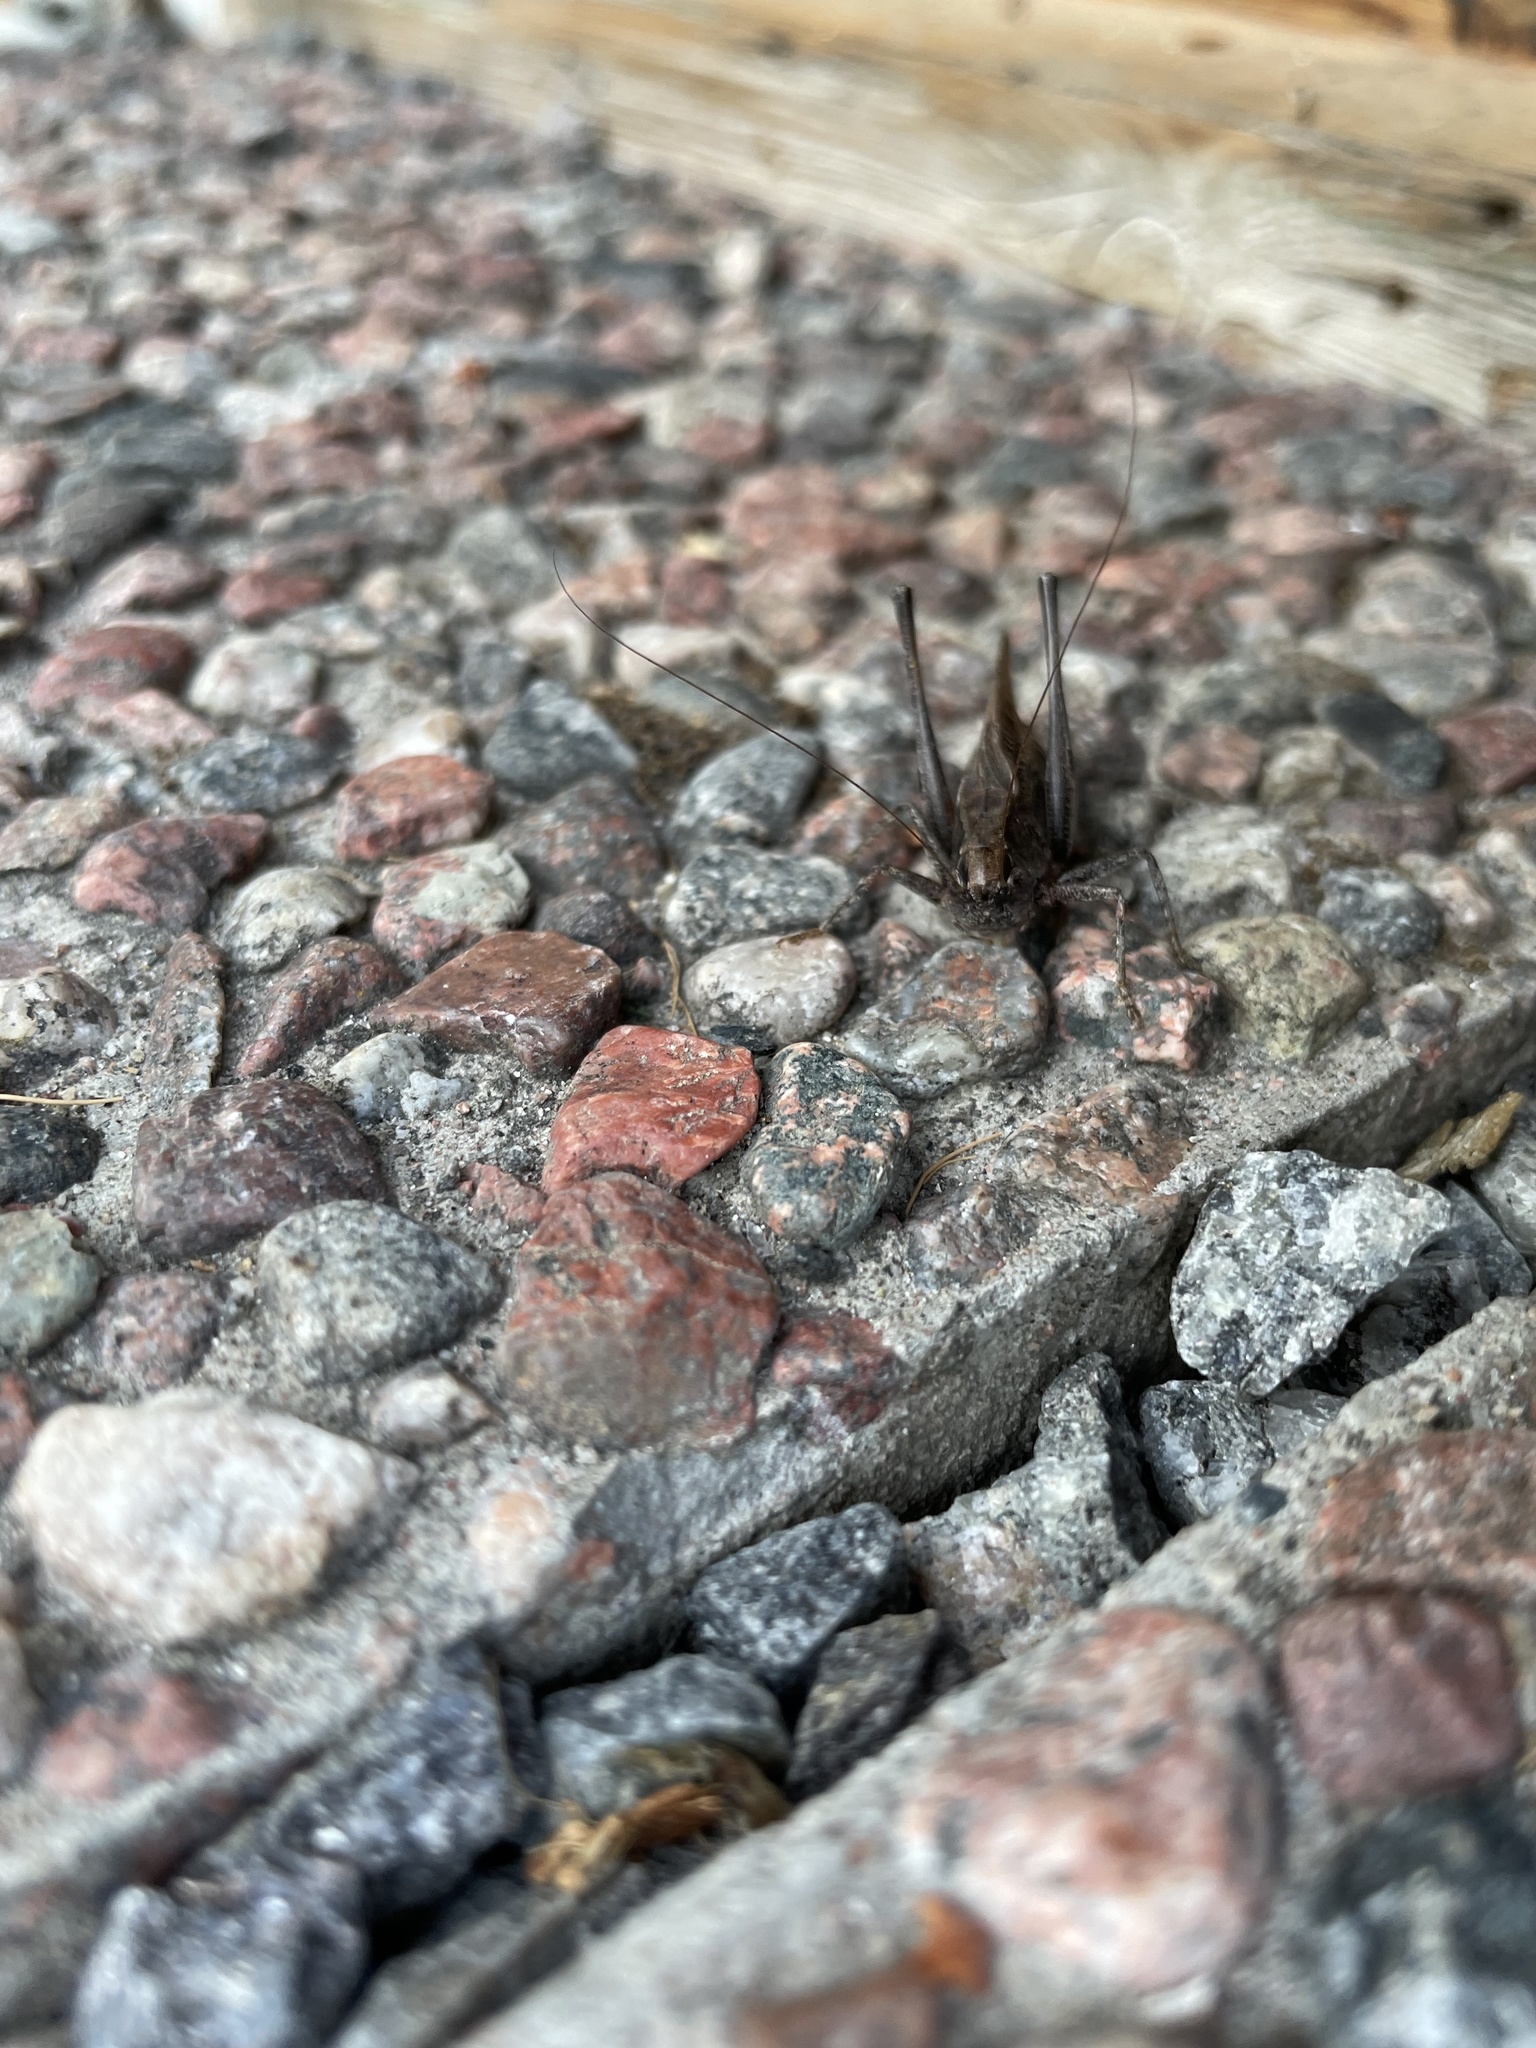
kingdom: Animalia
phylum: Arthropoda
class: Insecta
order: Orthoptera
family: Tettigoniidae
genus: Platycleis
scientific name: Platycleis albopunctata
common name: Grey bush-cricket
